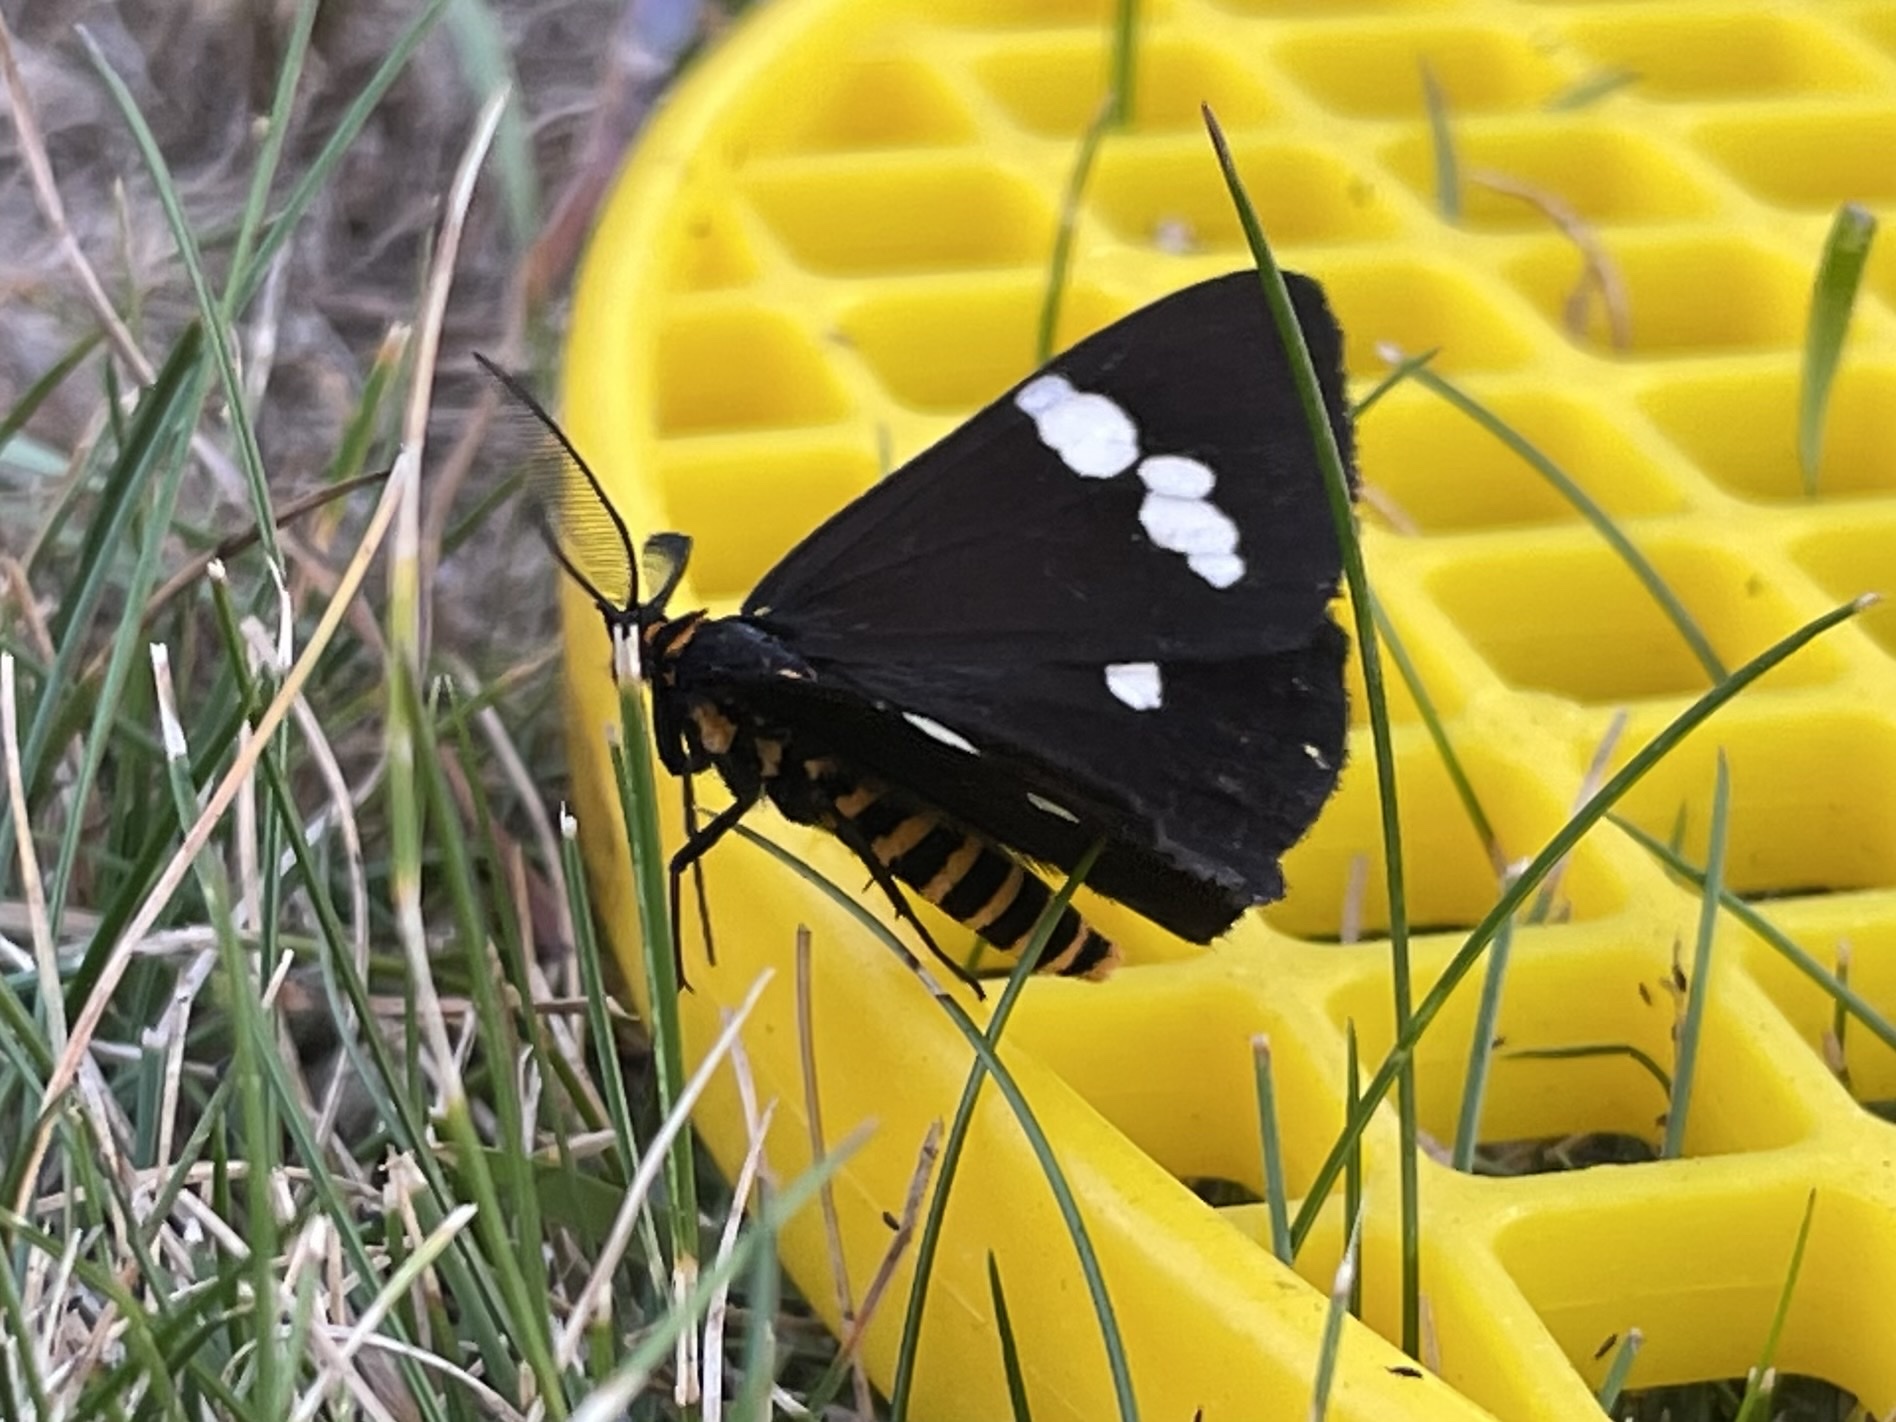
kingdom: Animalia
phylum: Arthropoda
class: Insecta
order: Lepidoptera
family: Erebidae
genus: Nyctemera
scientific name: Nyctemera annulatum
